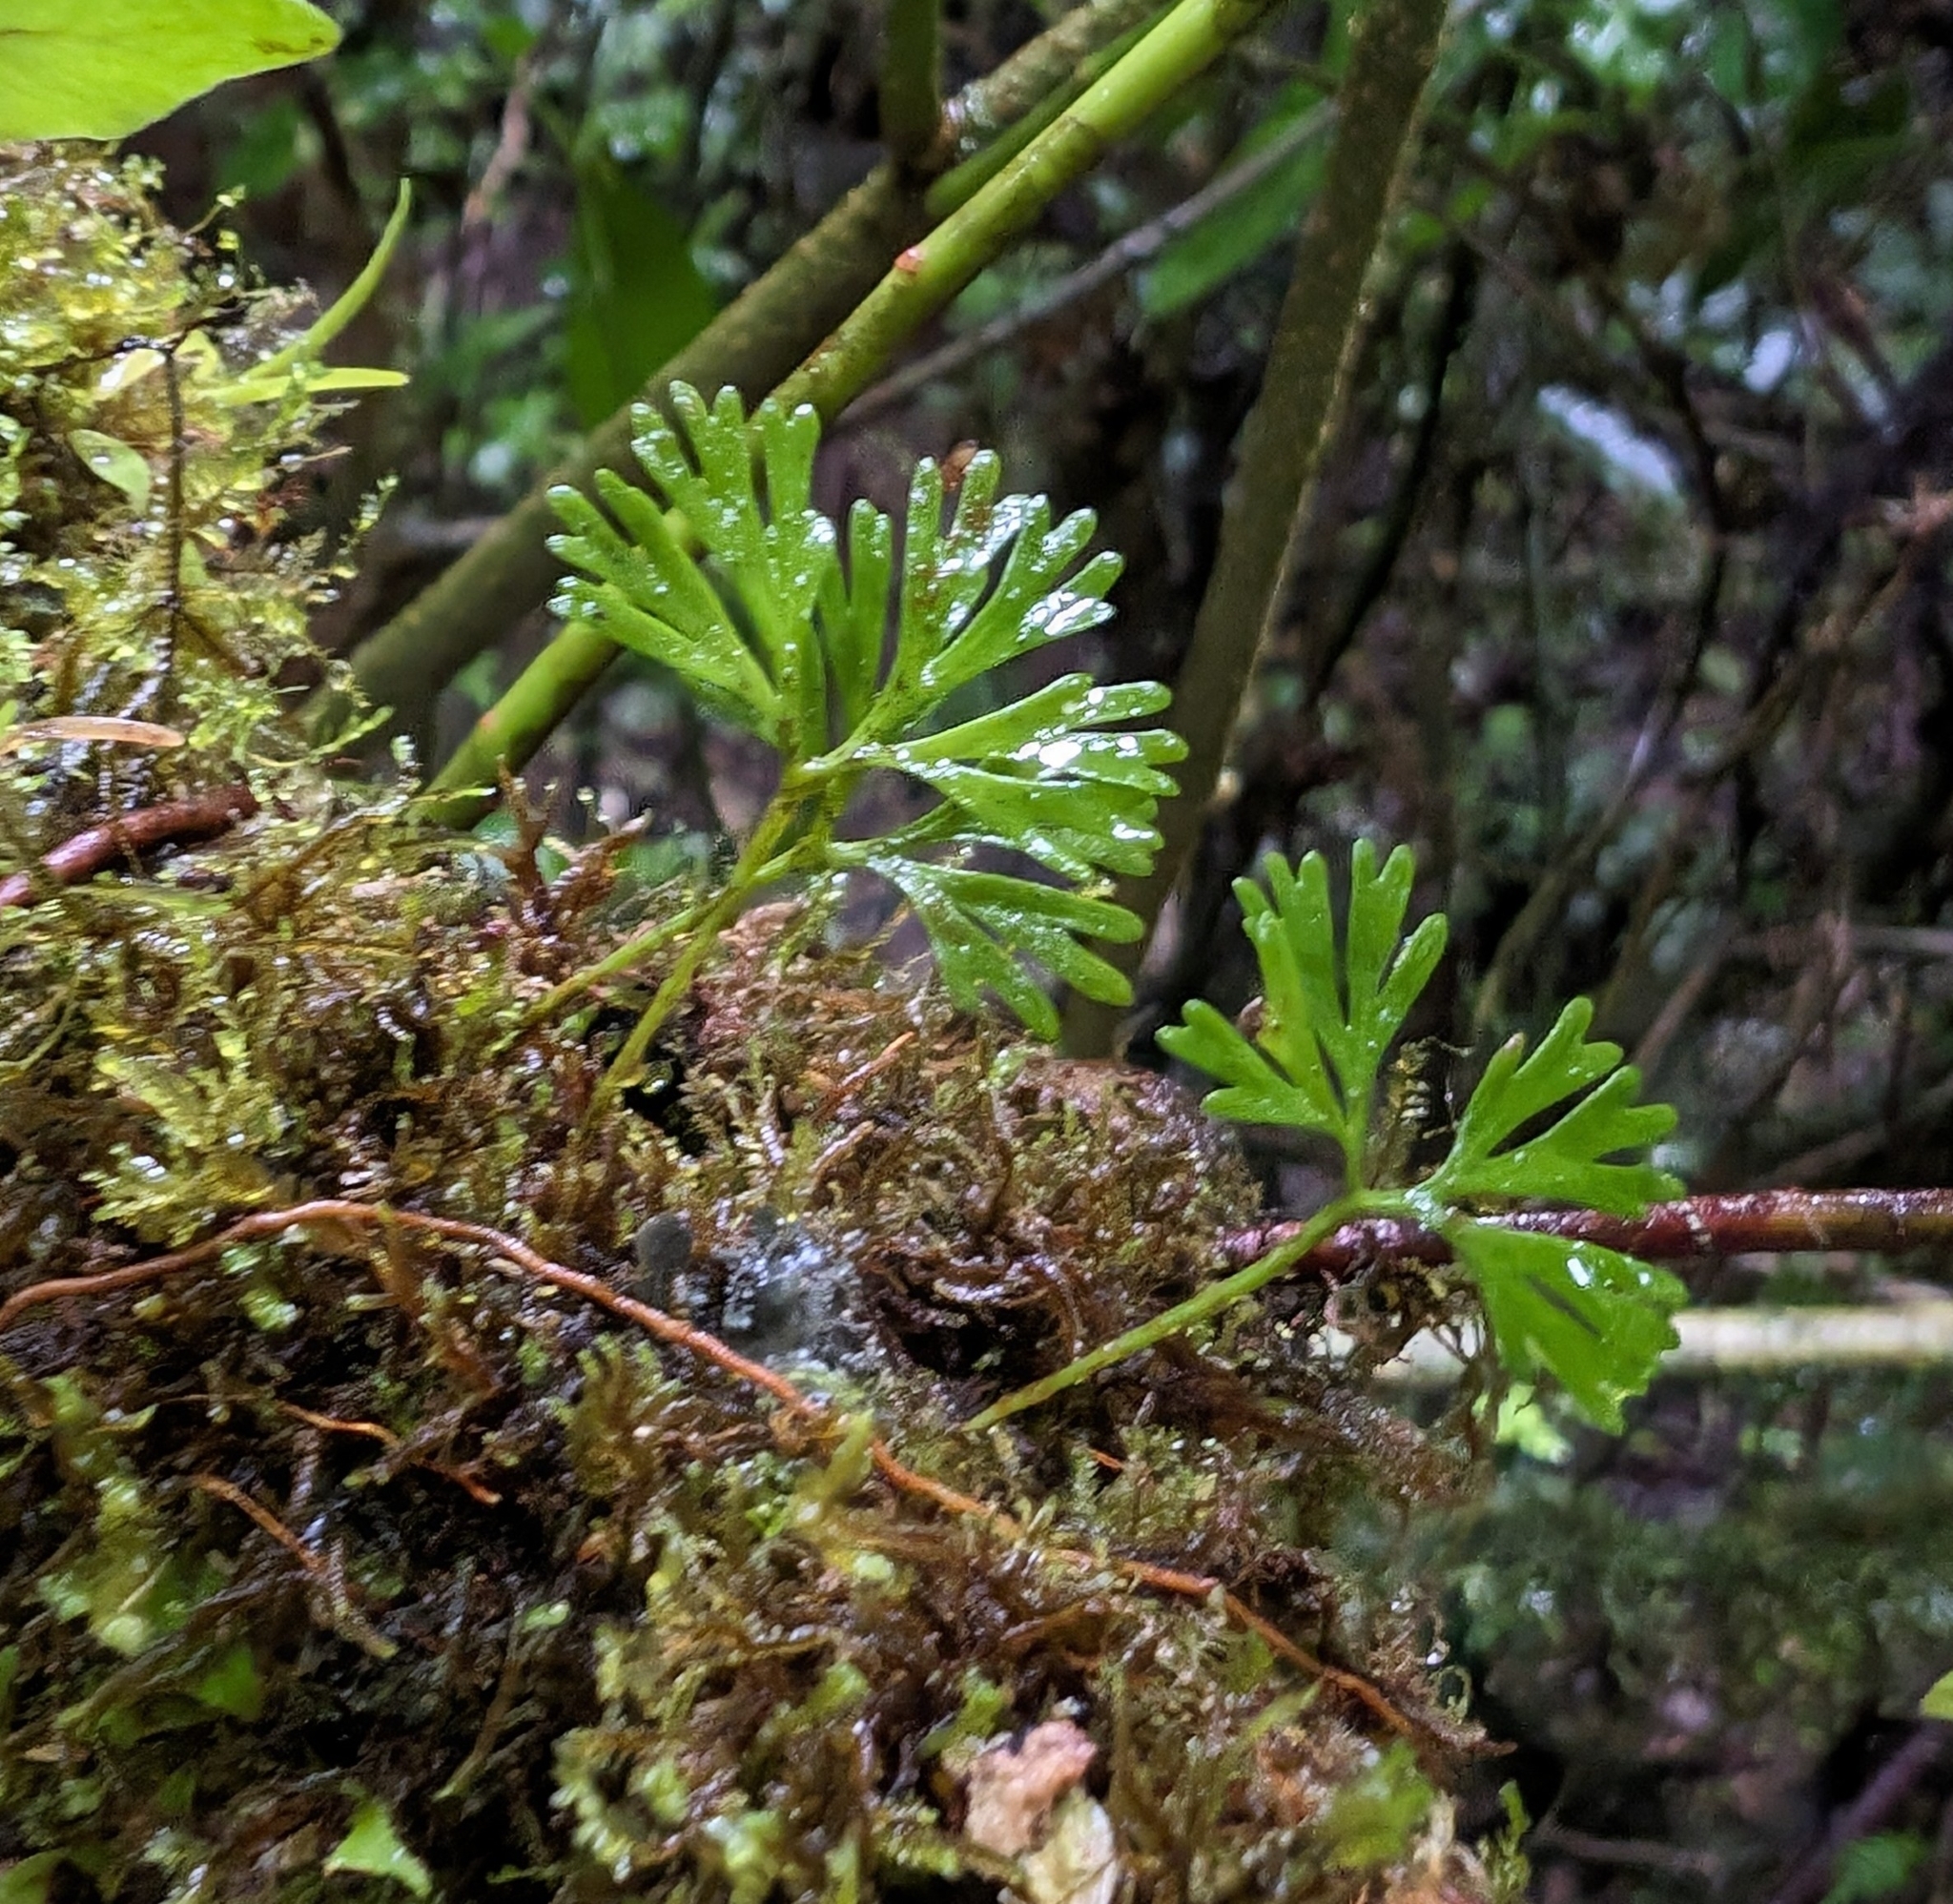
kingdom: Plantae
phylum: Tracheophyta
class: Polypodiopsida
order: Polypodiales
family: Dryopteridaceae
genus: Elaphoglossum
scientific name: Elaphoglossum peltatum
